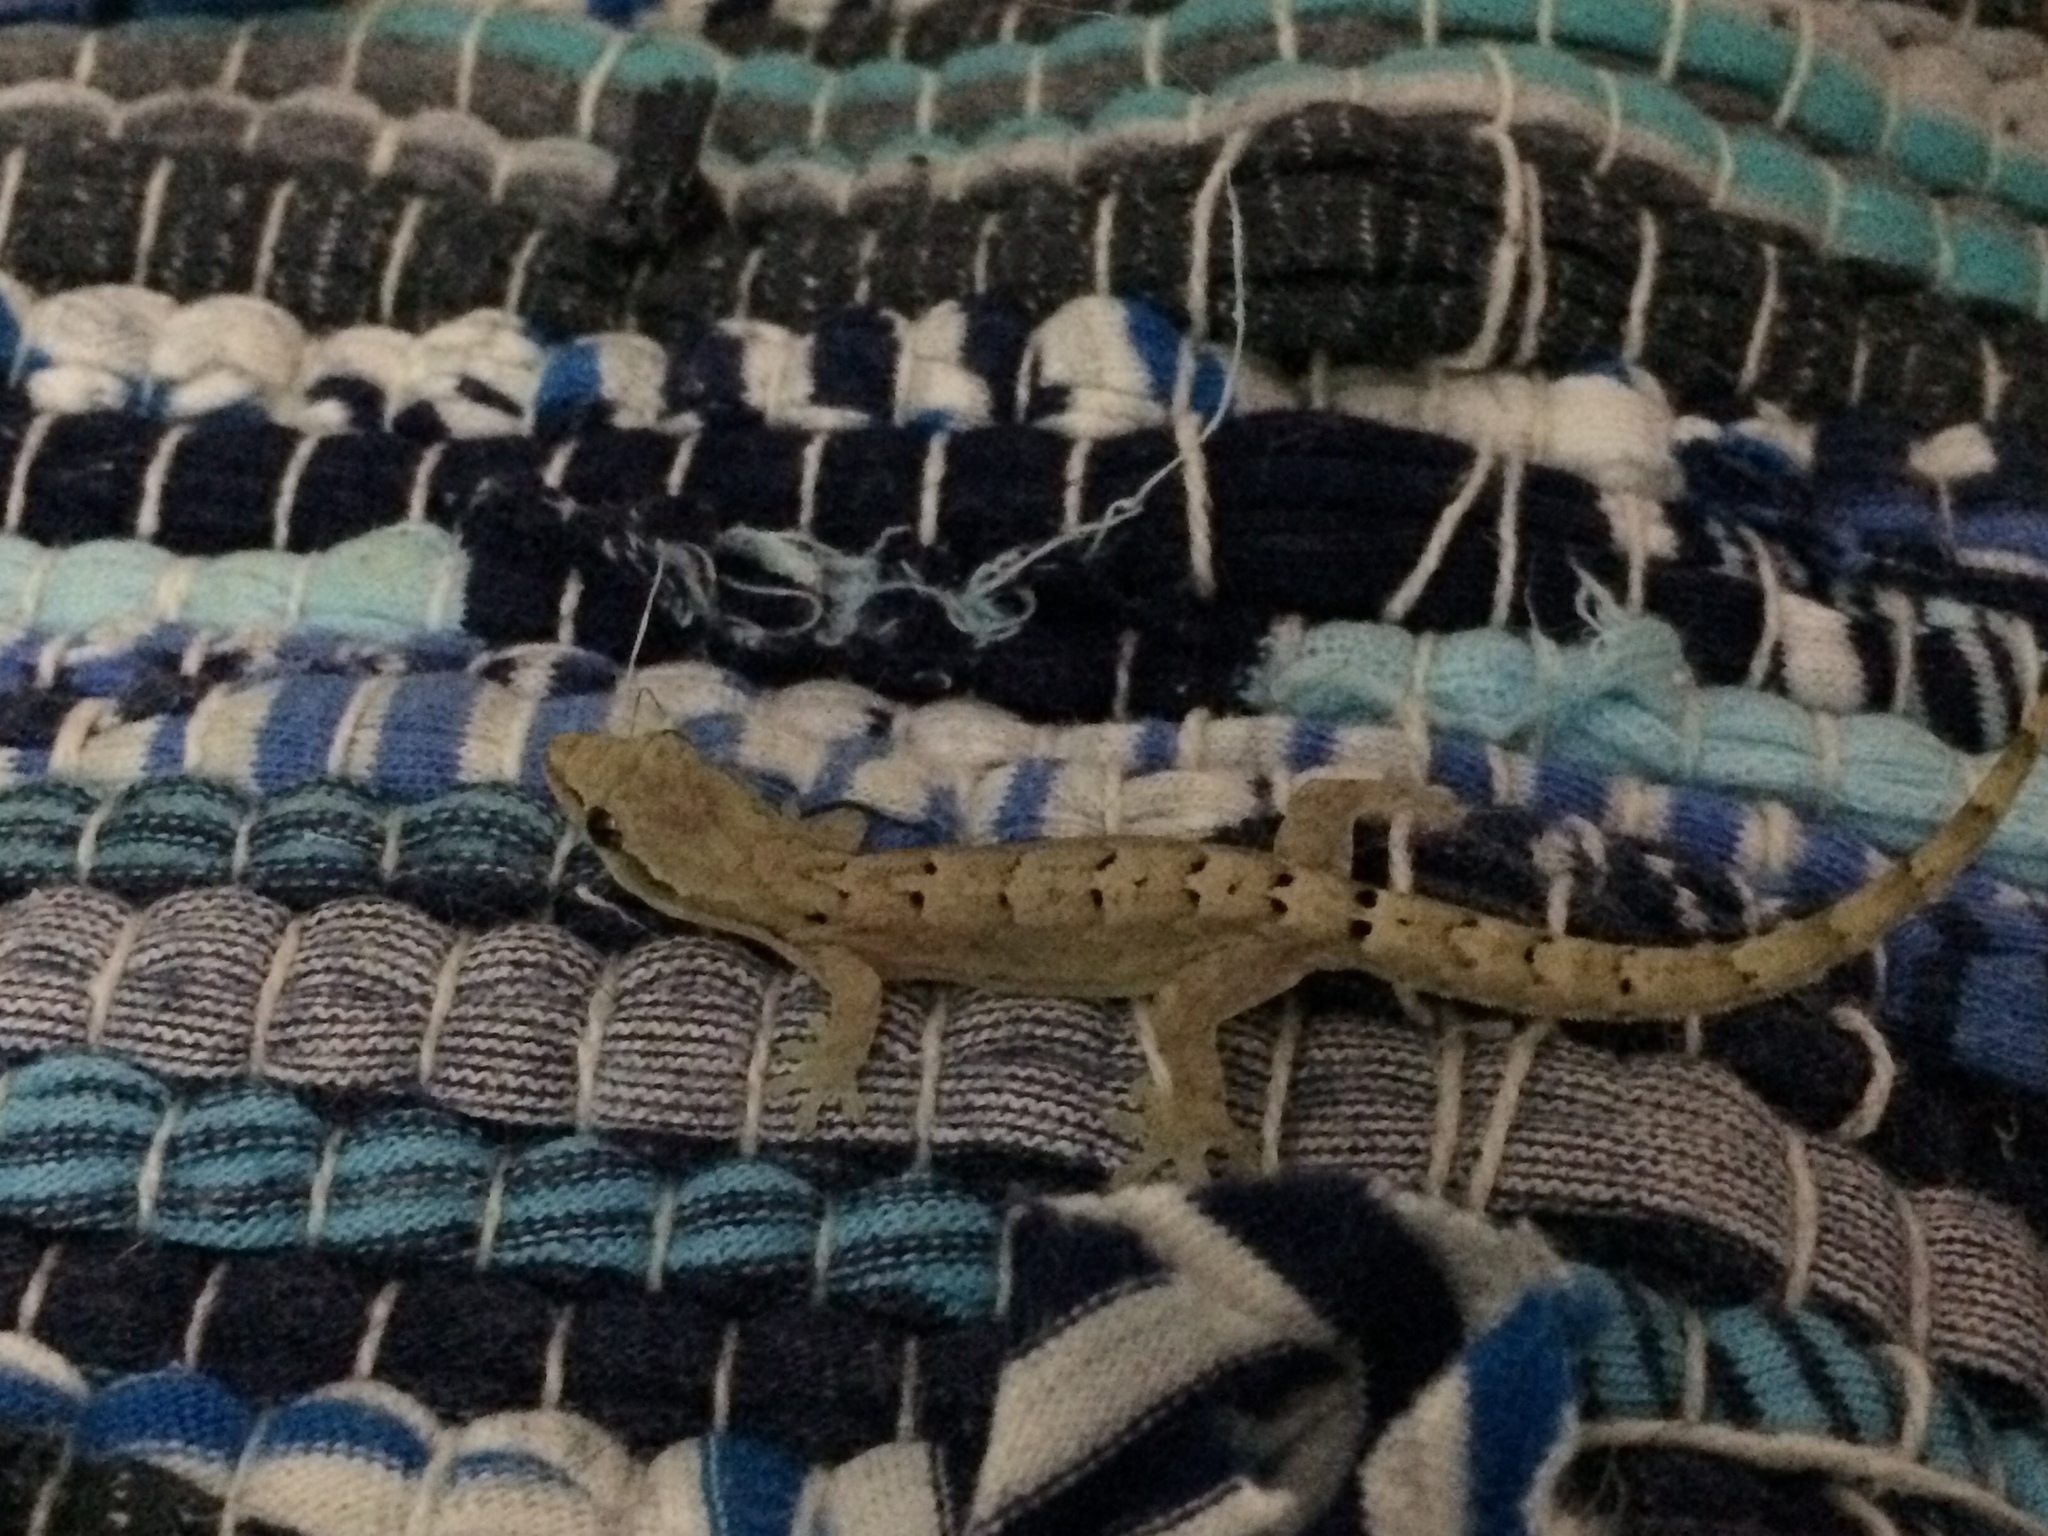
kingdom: Animalia
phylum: Chordata
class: Squamata
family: Gekkonidae
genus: Lepidodactylus
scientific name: Lepidodactylus lugubris
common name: Mourning gecko
